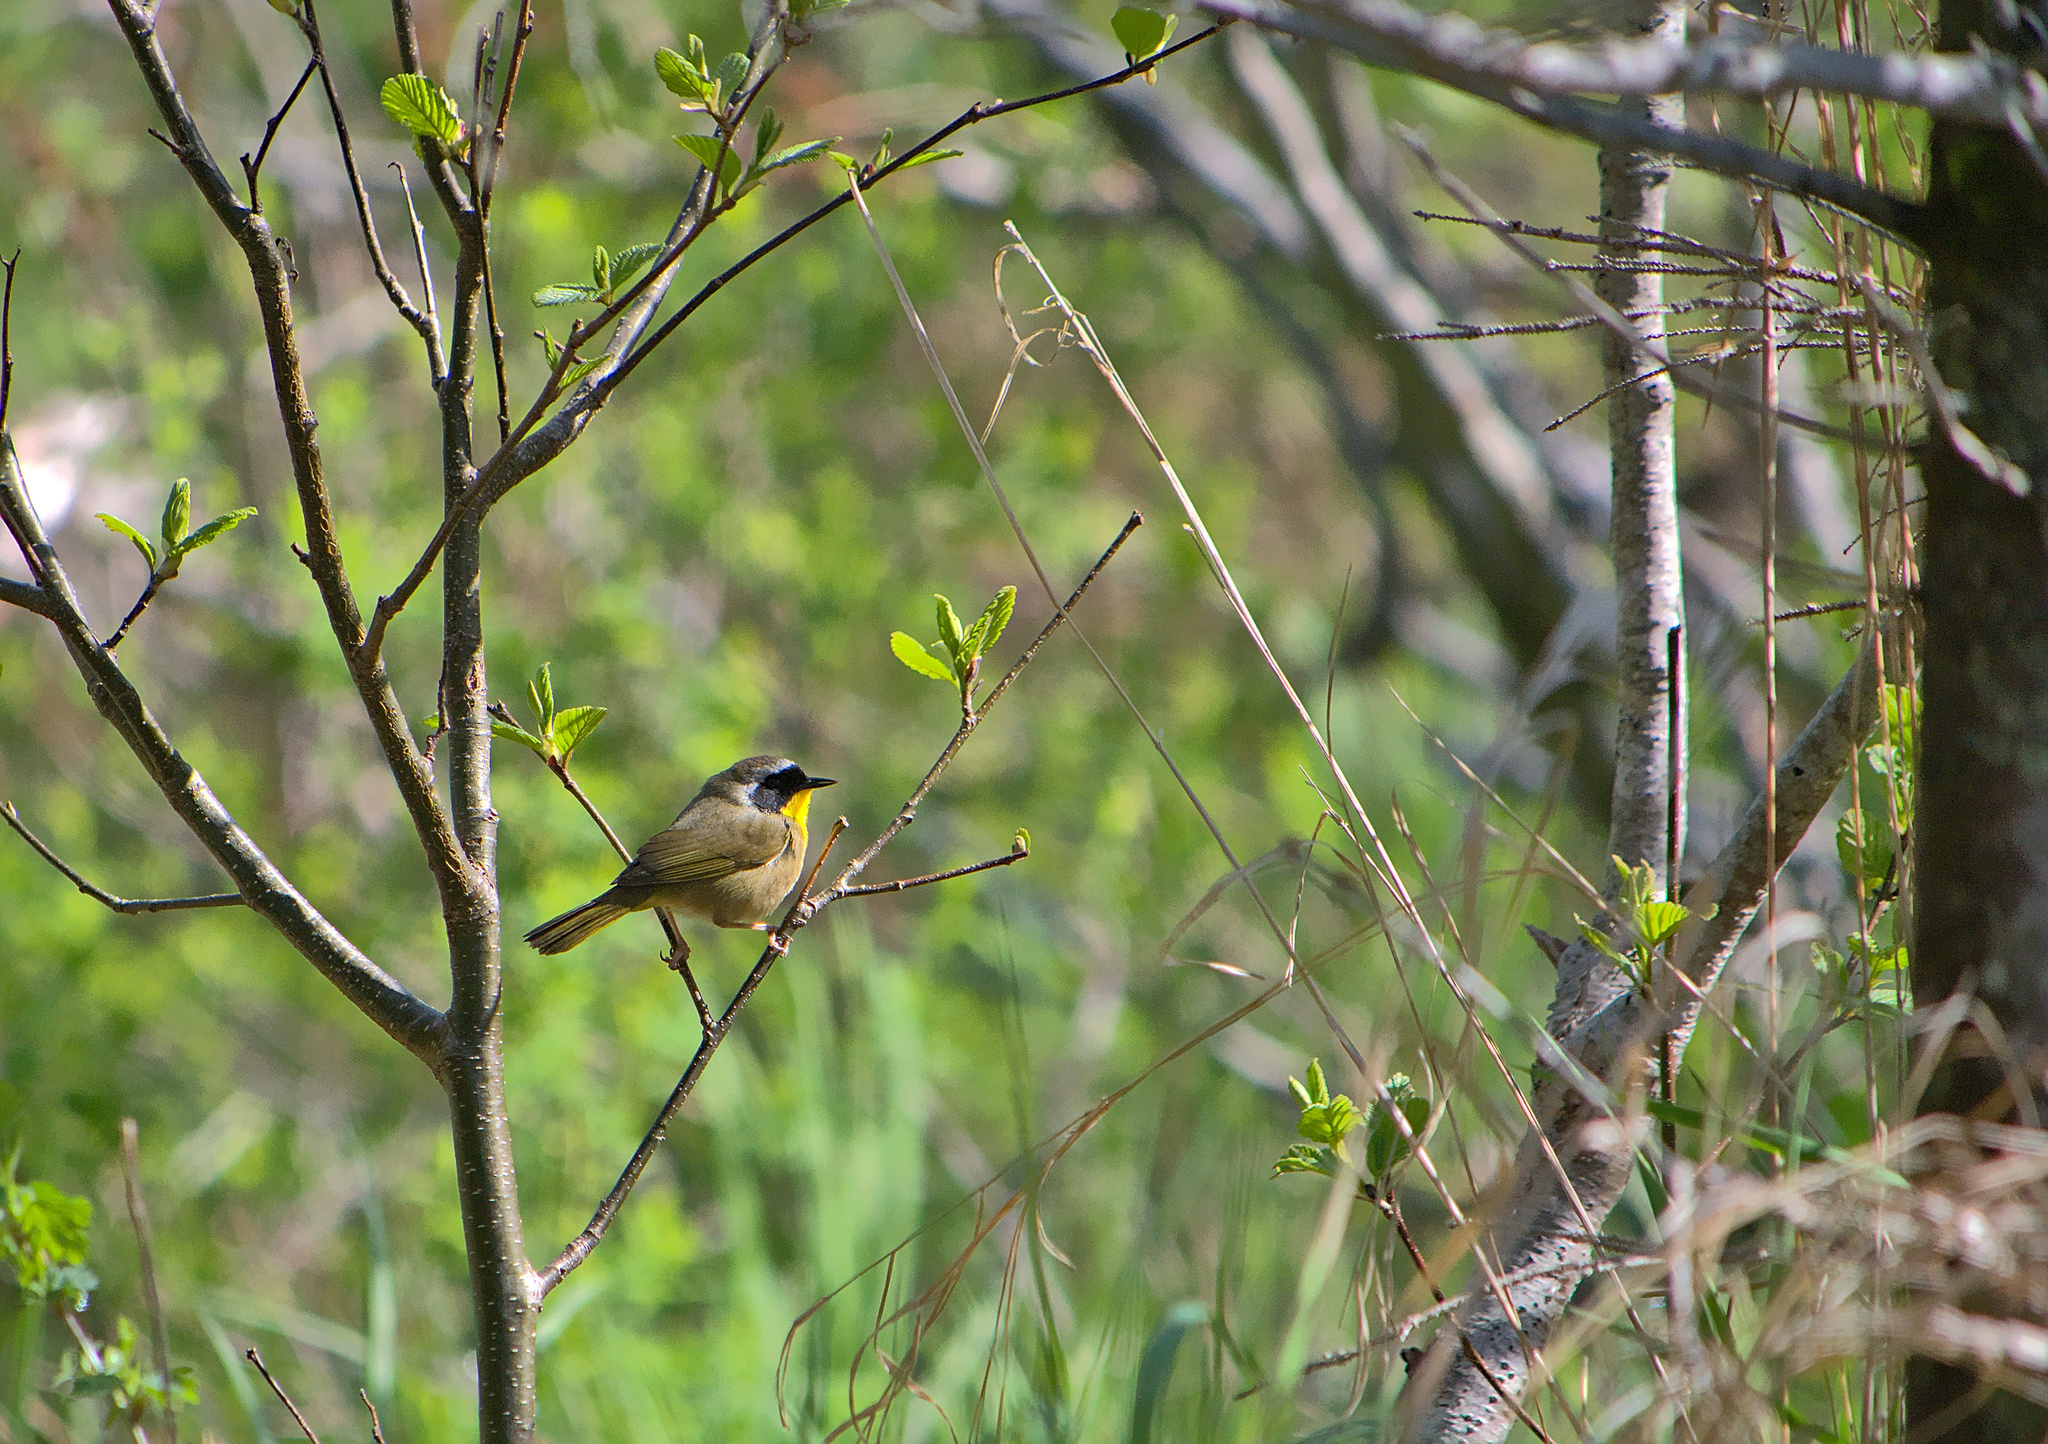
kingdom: Animalia
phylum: Chordata
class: Aves
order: Passeriformes
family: Parulidae
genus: Geothlypis
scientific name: Geothlypis trichas
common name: Common yellowthroat
